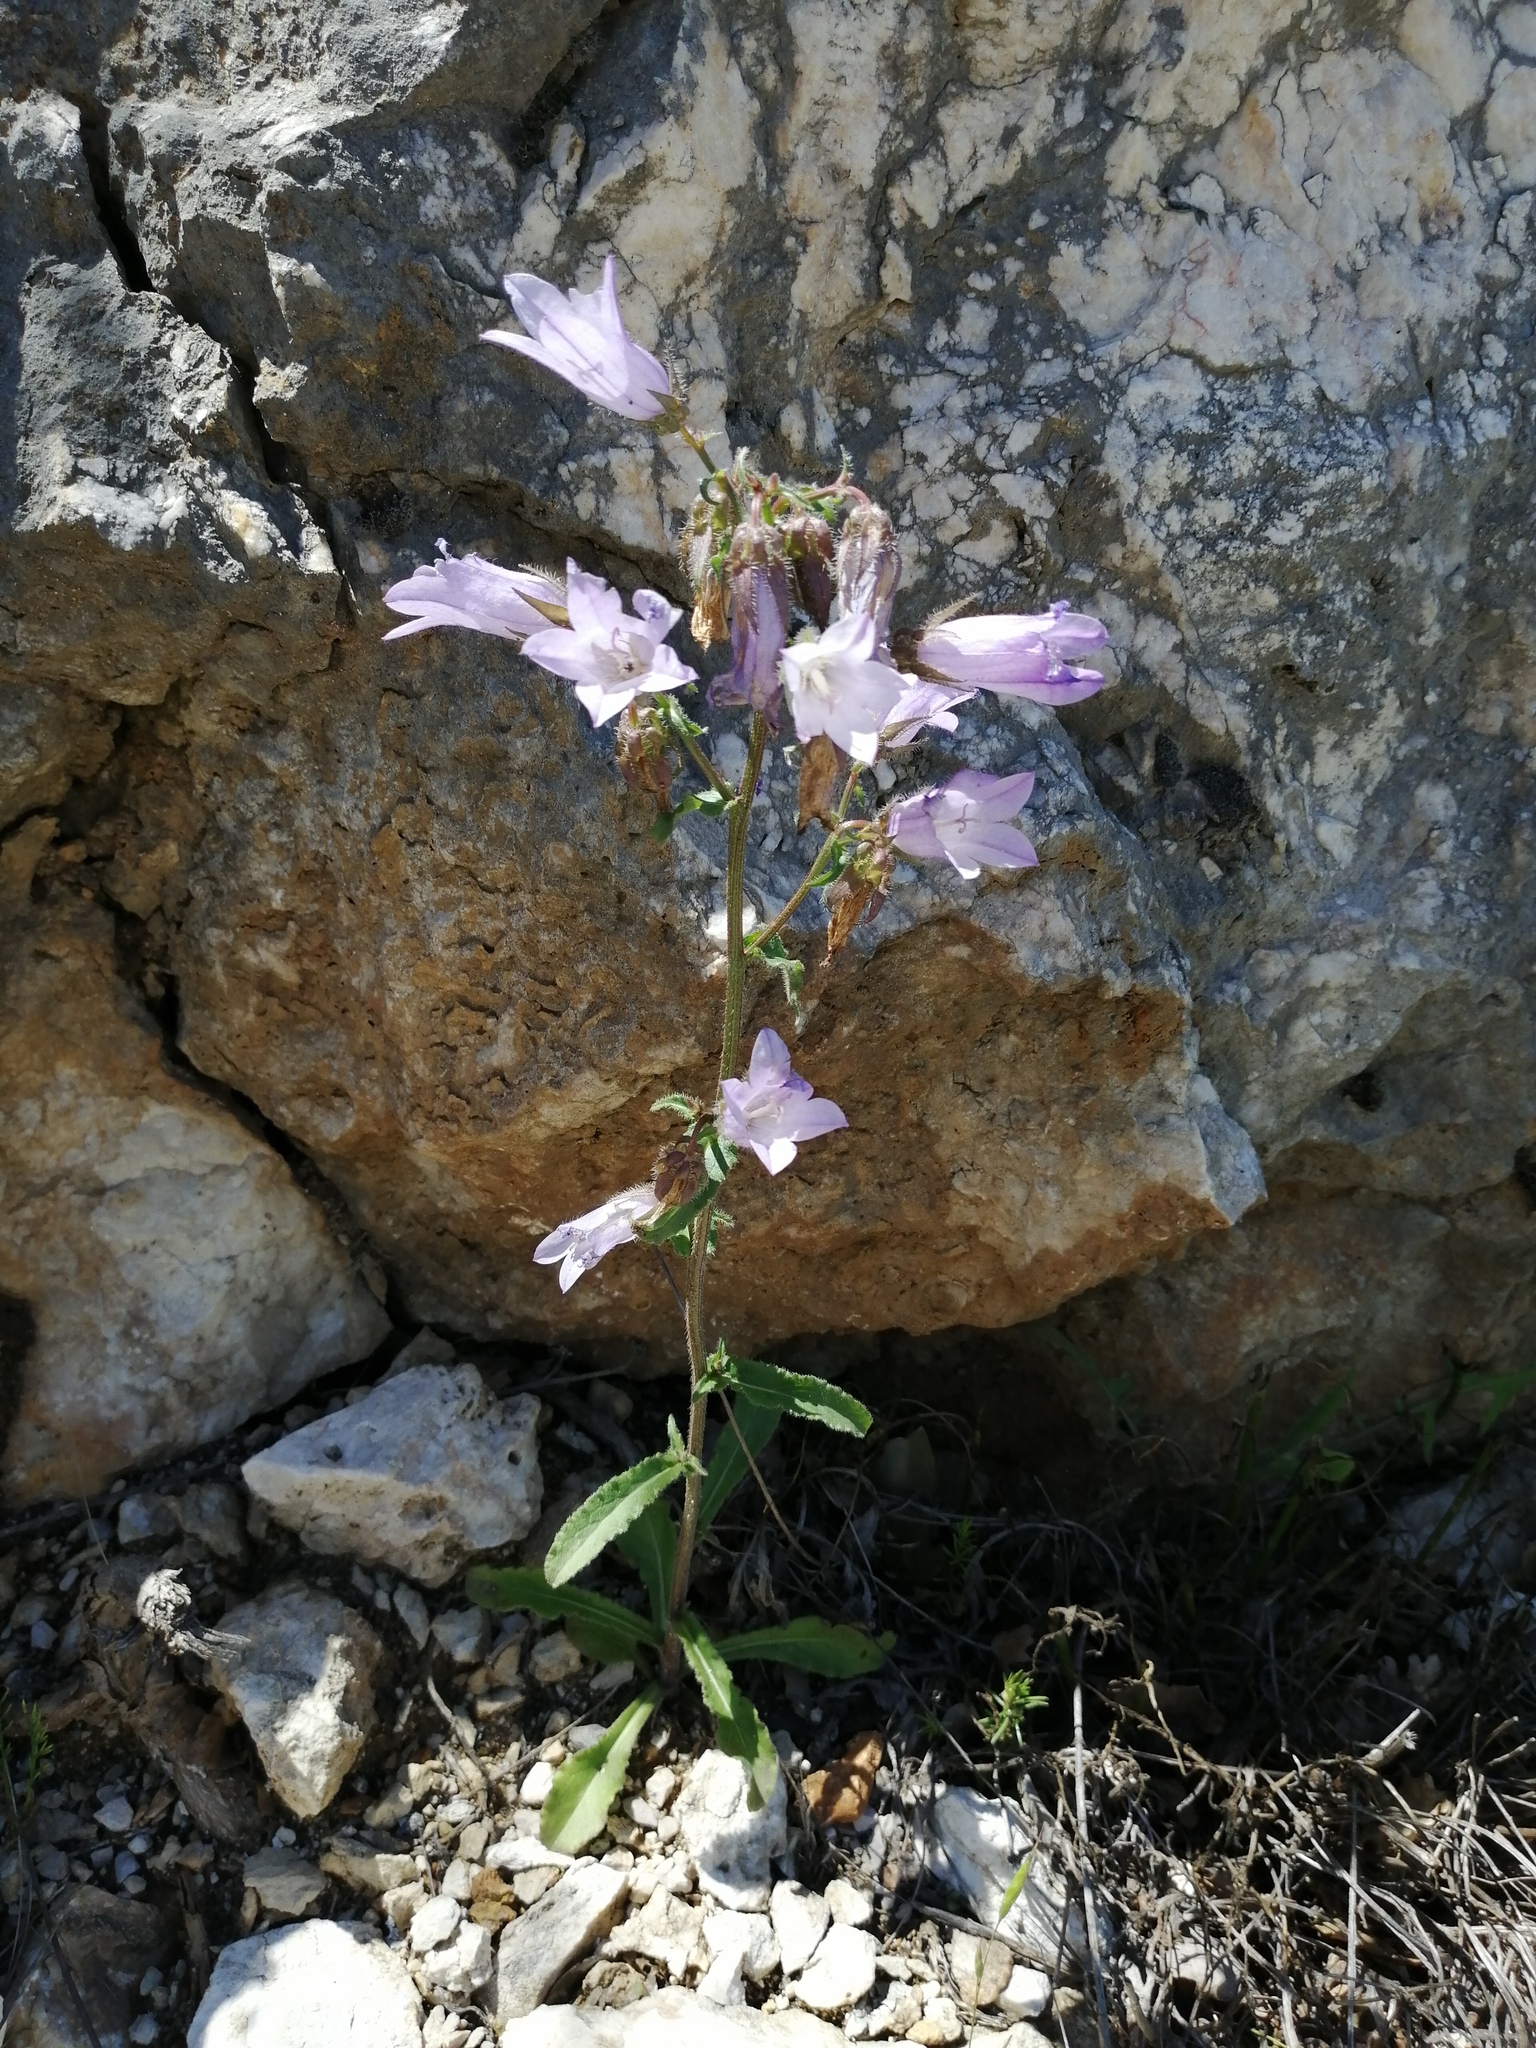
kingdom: Plantae
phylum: Tracheophyta
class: Magnoliopsida
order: Asterales
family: Campanulaceae
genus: Campanula
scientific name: Campanula sibirica
